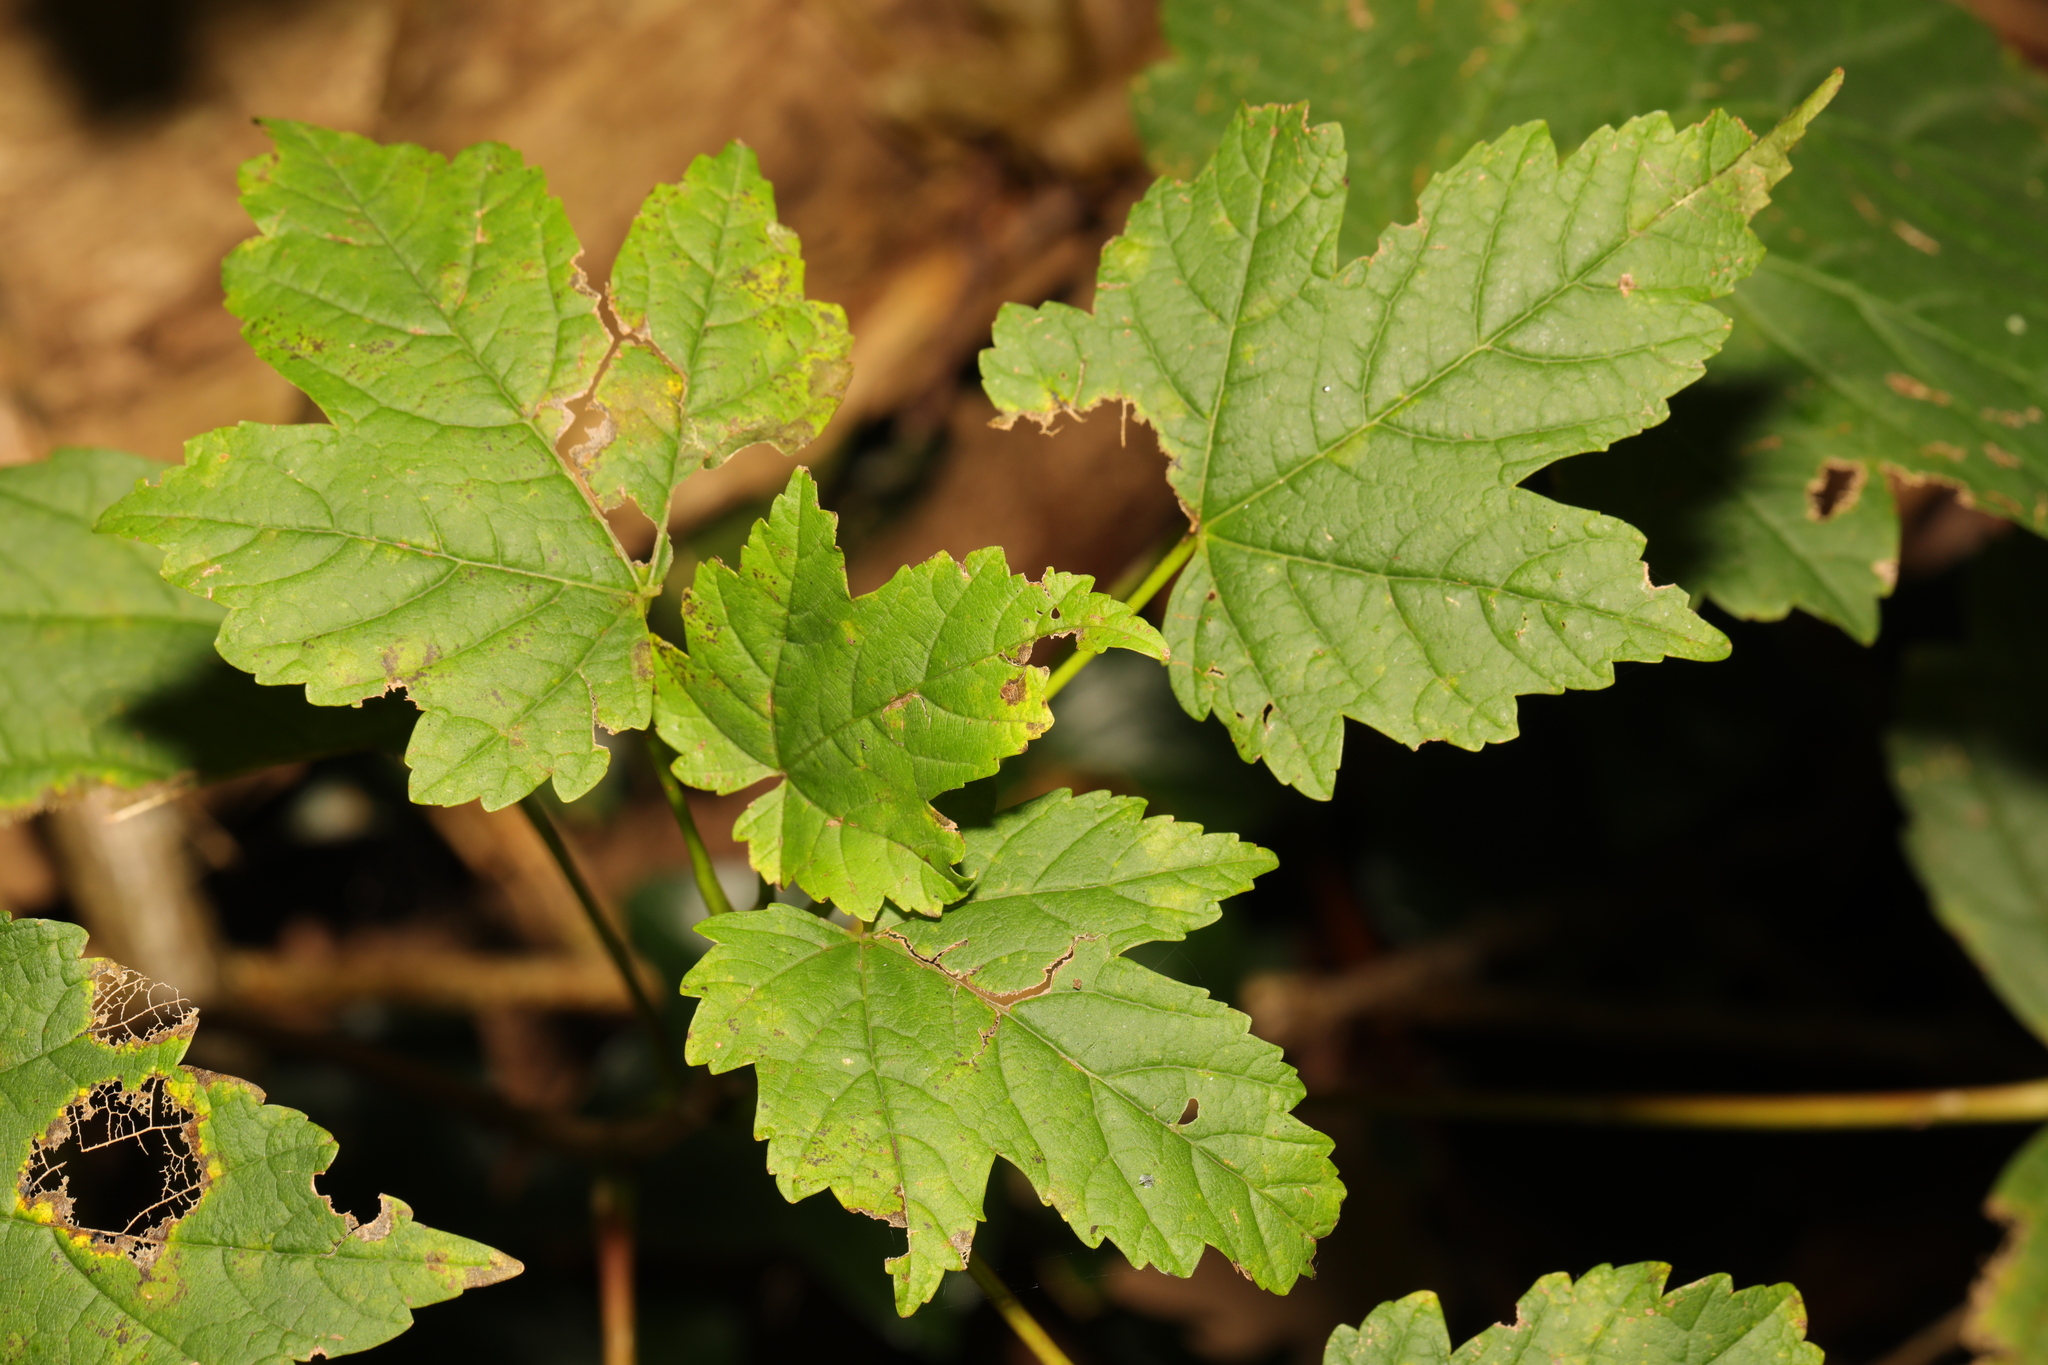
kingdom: Plantae
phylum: Tracheophyta
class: Magnoliopsida
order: Sapindales
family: Sapindaceae
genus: Acer
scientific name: Acer pseudoplatanus
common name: Sycamore
